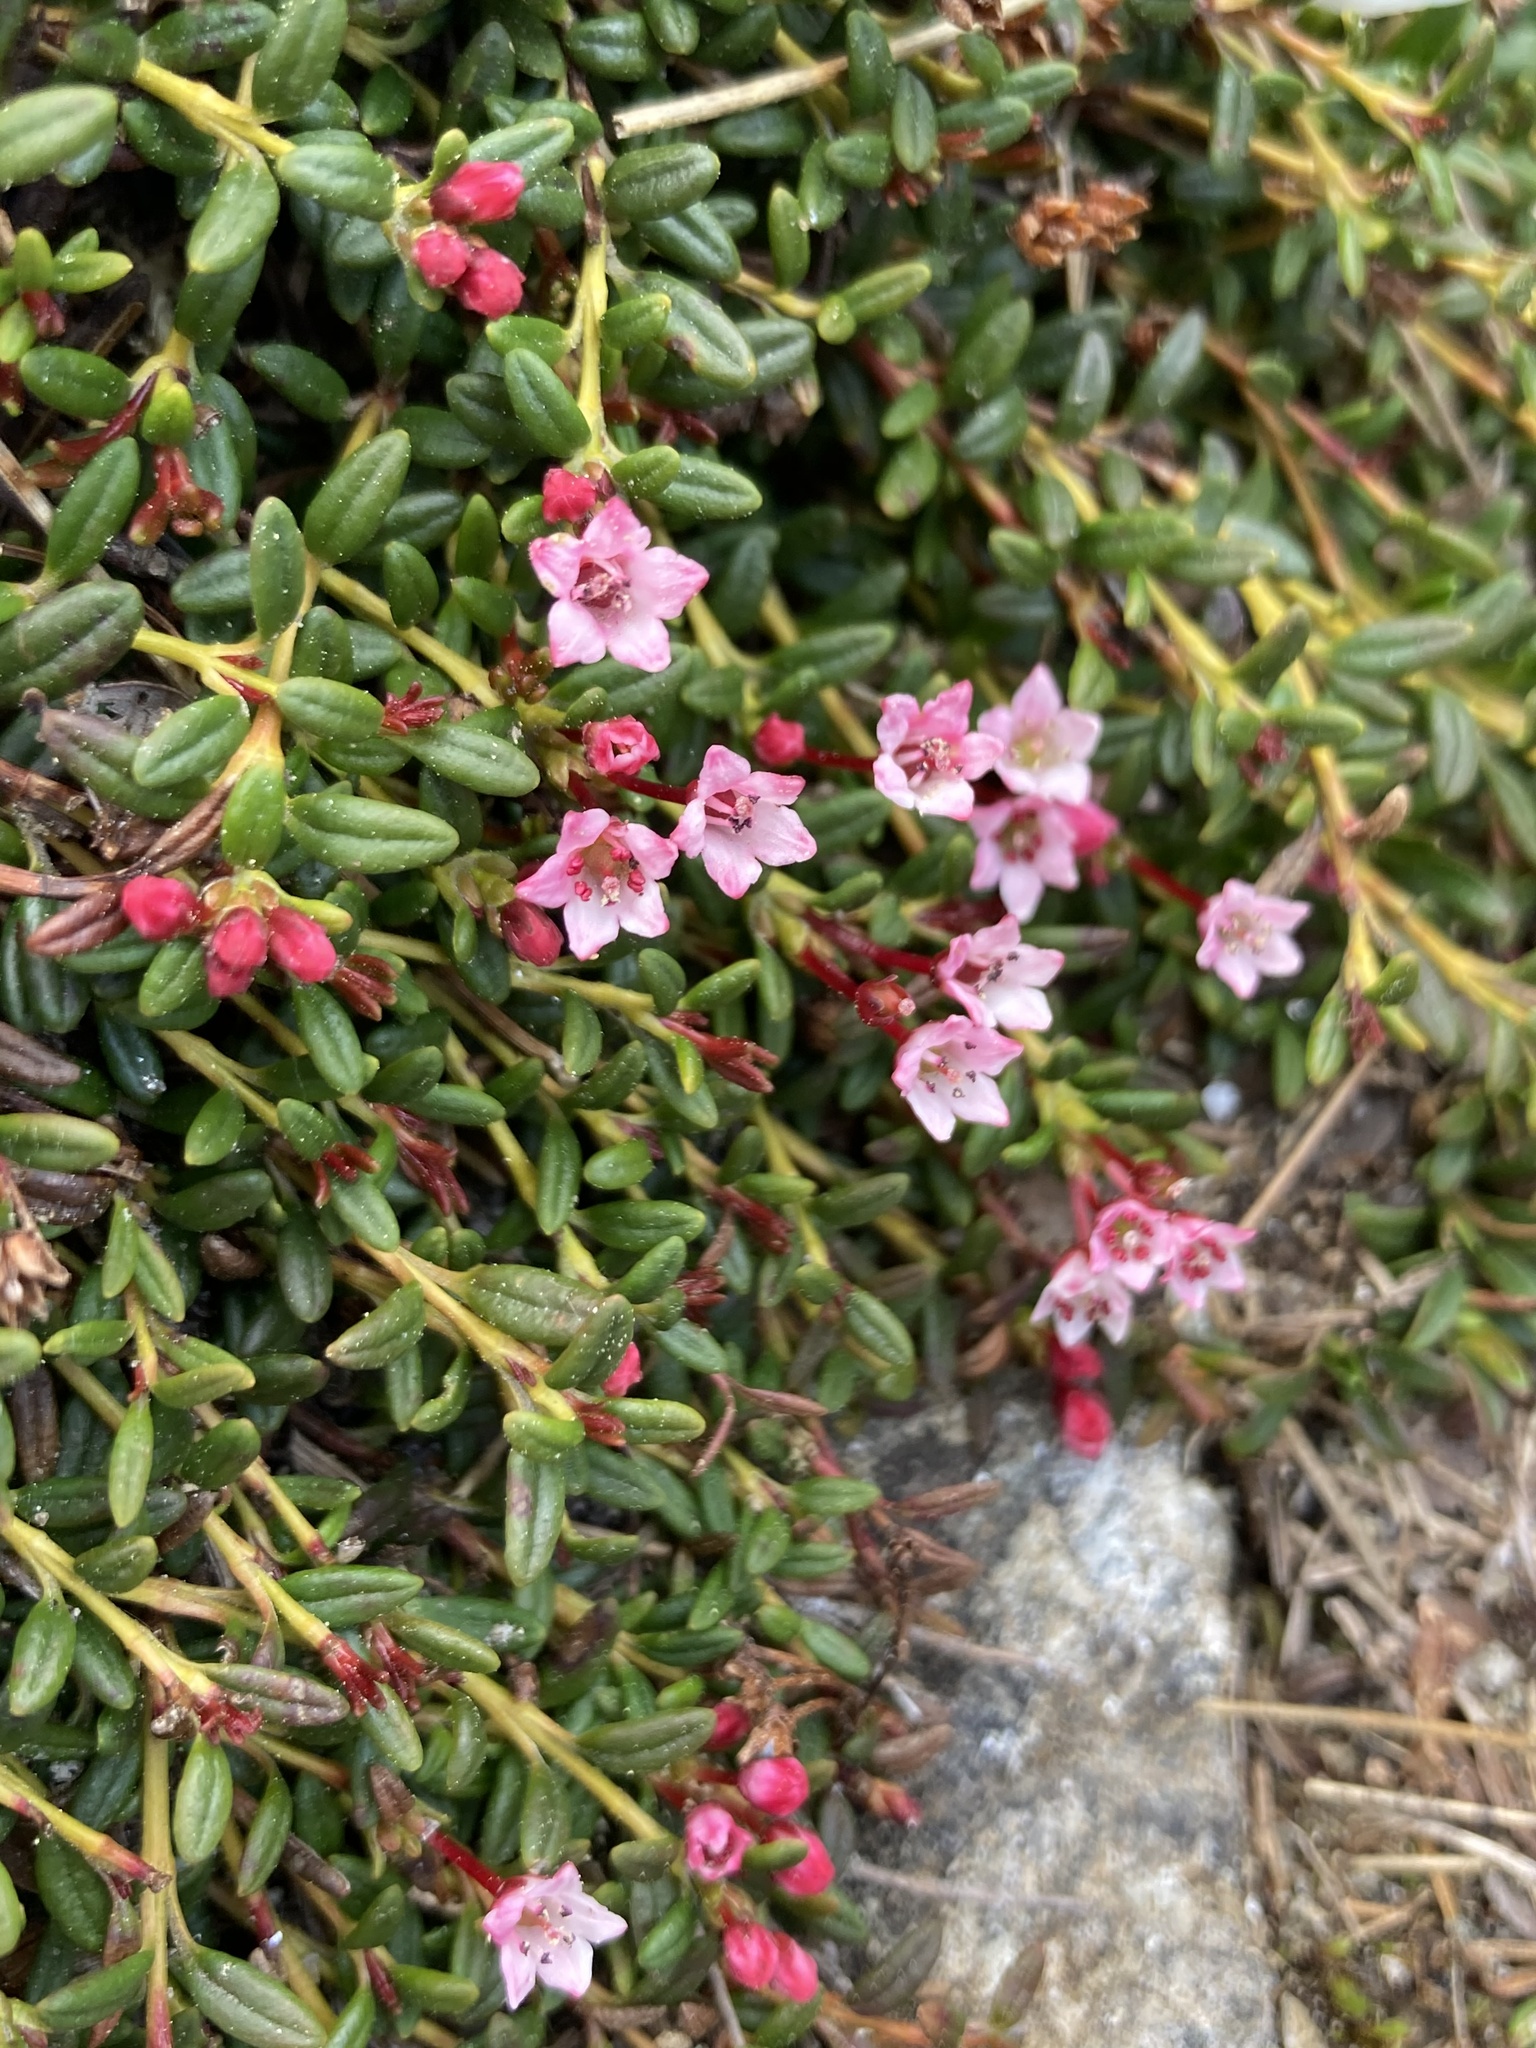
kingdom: Plantae
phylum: Tracheophyta
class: Magnoliopsida
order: Ericales
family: Ericaceae
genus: Kalmia
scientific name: Kalmia procumbens
